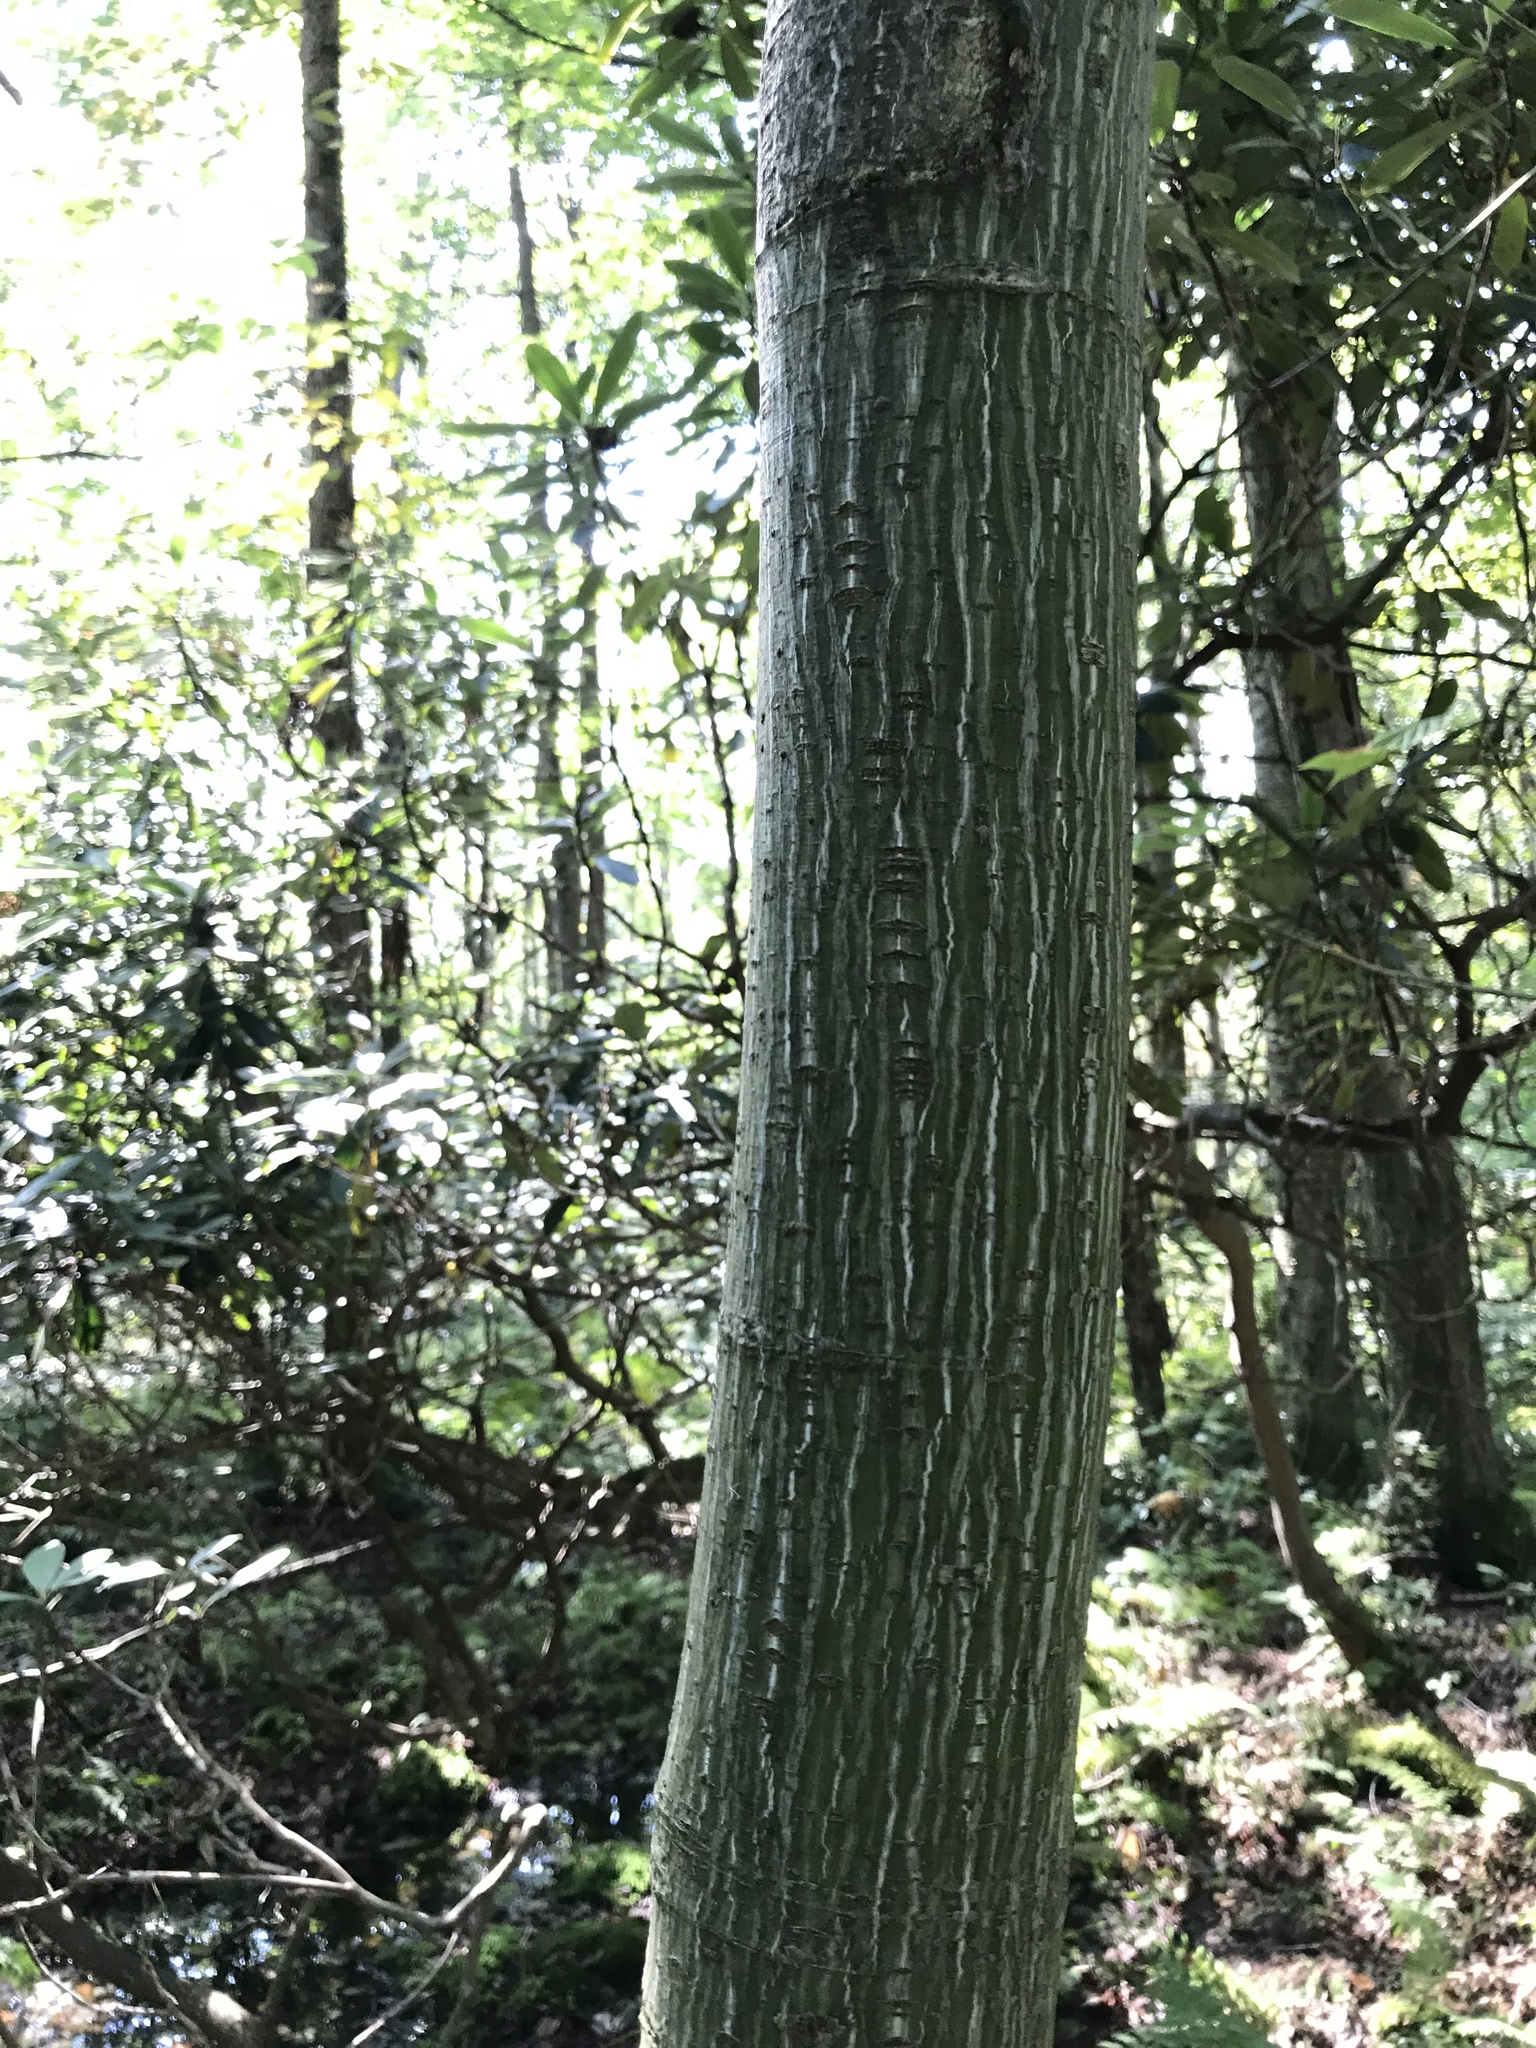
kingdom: Plantae
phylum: Tracheophyta
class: Magnoliopsida
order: Sapindales
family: Sapindaceae
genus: Acer
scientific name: Acer pensylvanicum
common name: Moosewood
